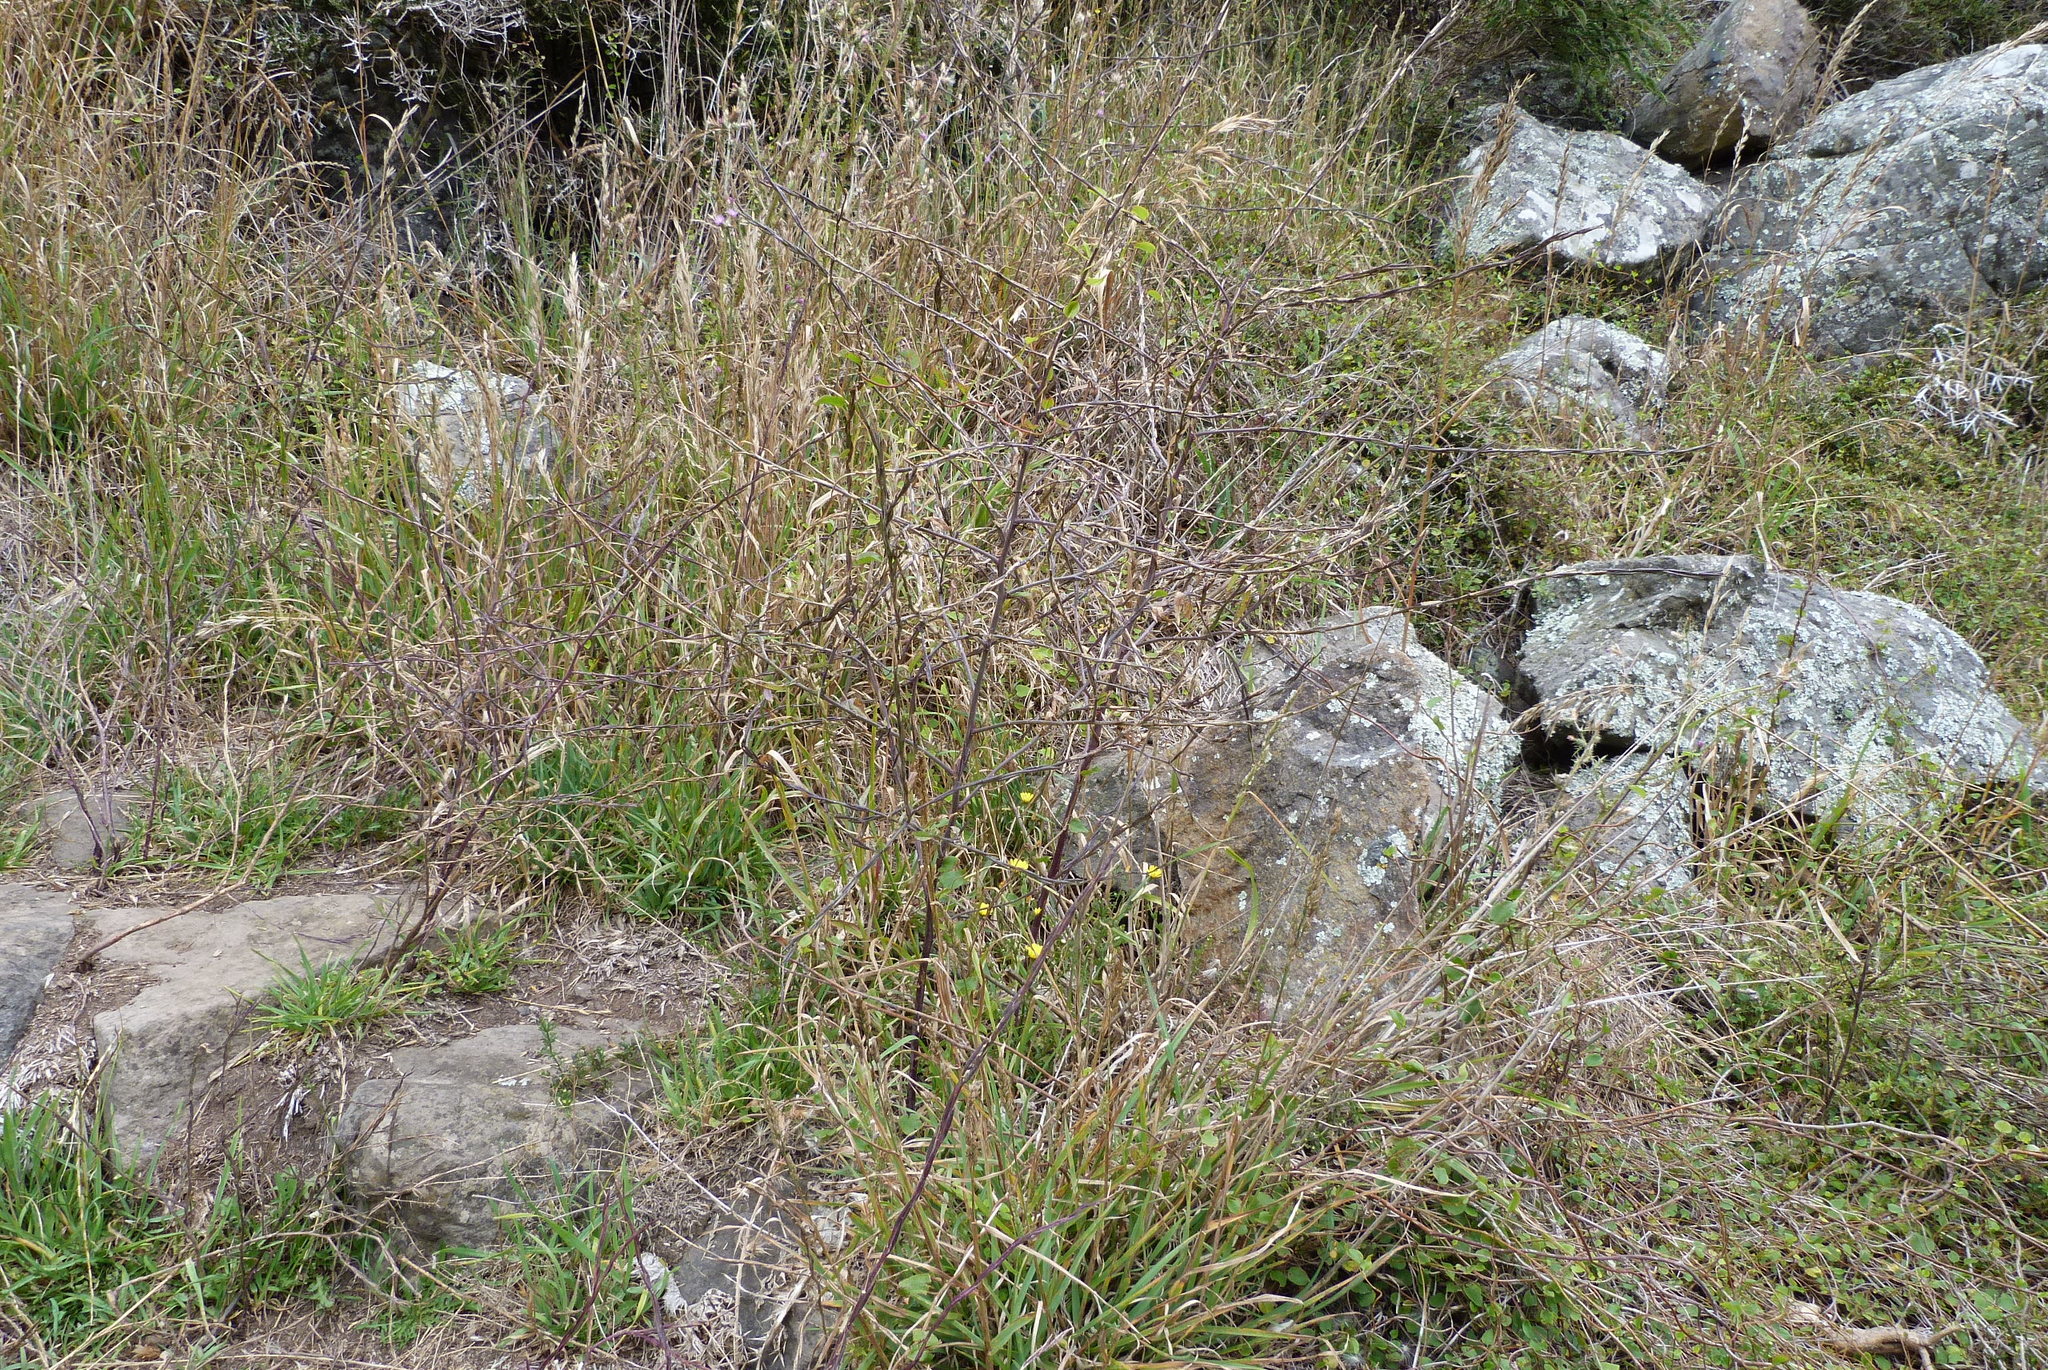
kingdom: Plantae
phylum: Tracheophyta
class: Magnoliopsida
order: Brassicales
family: Brassicaceae
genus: Sisymbrium
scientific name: Sisymbrium officinale
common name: Hedge mustard
